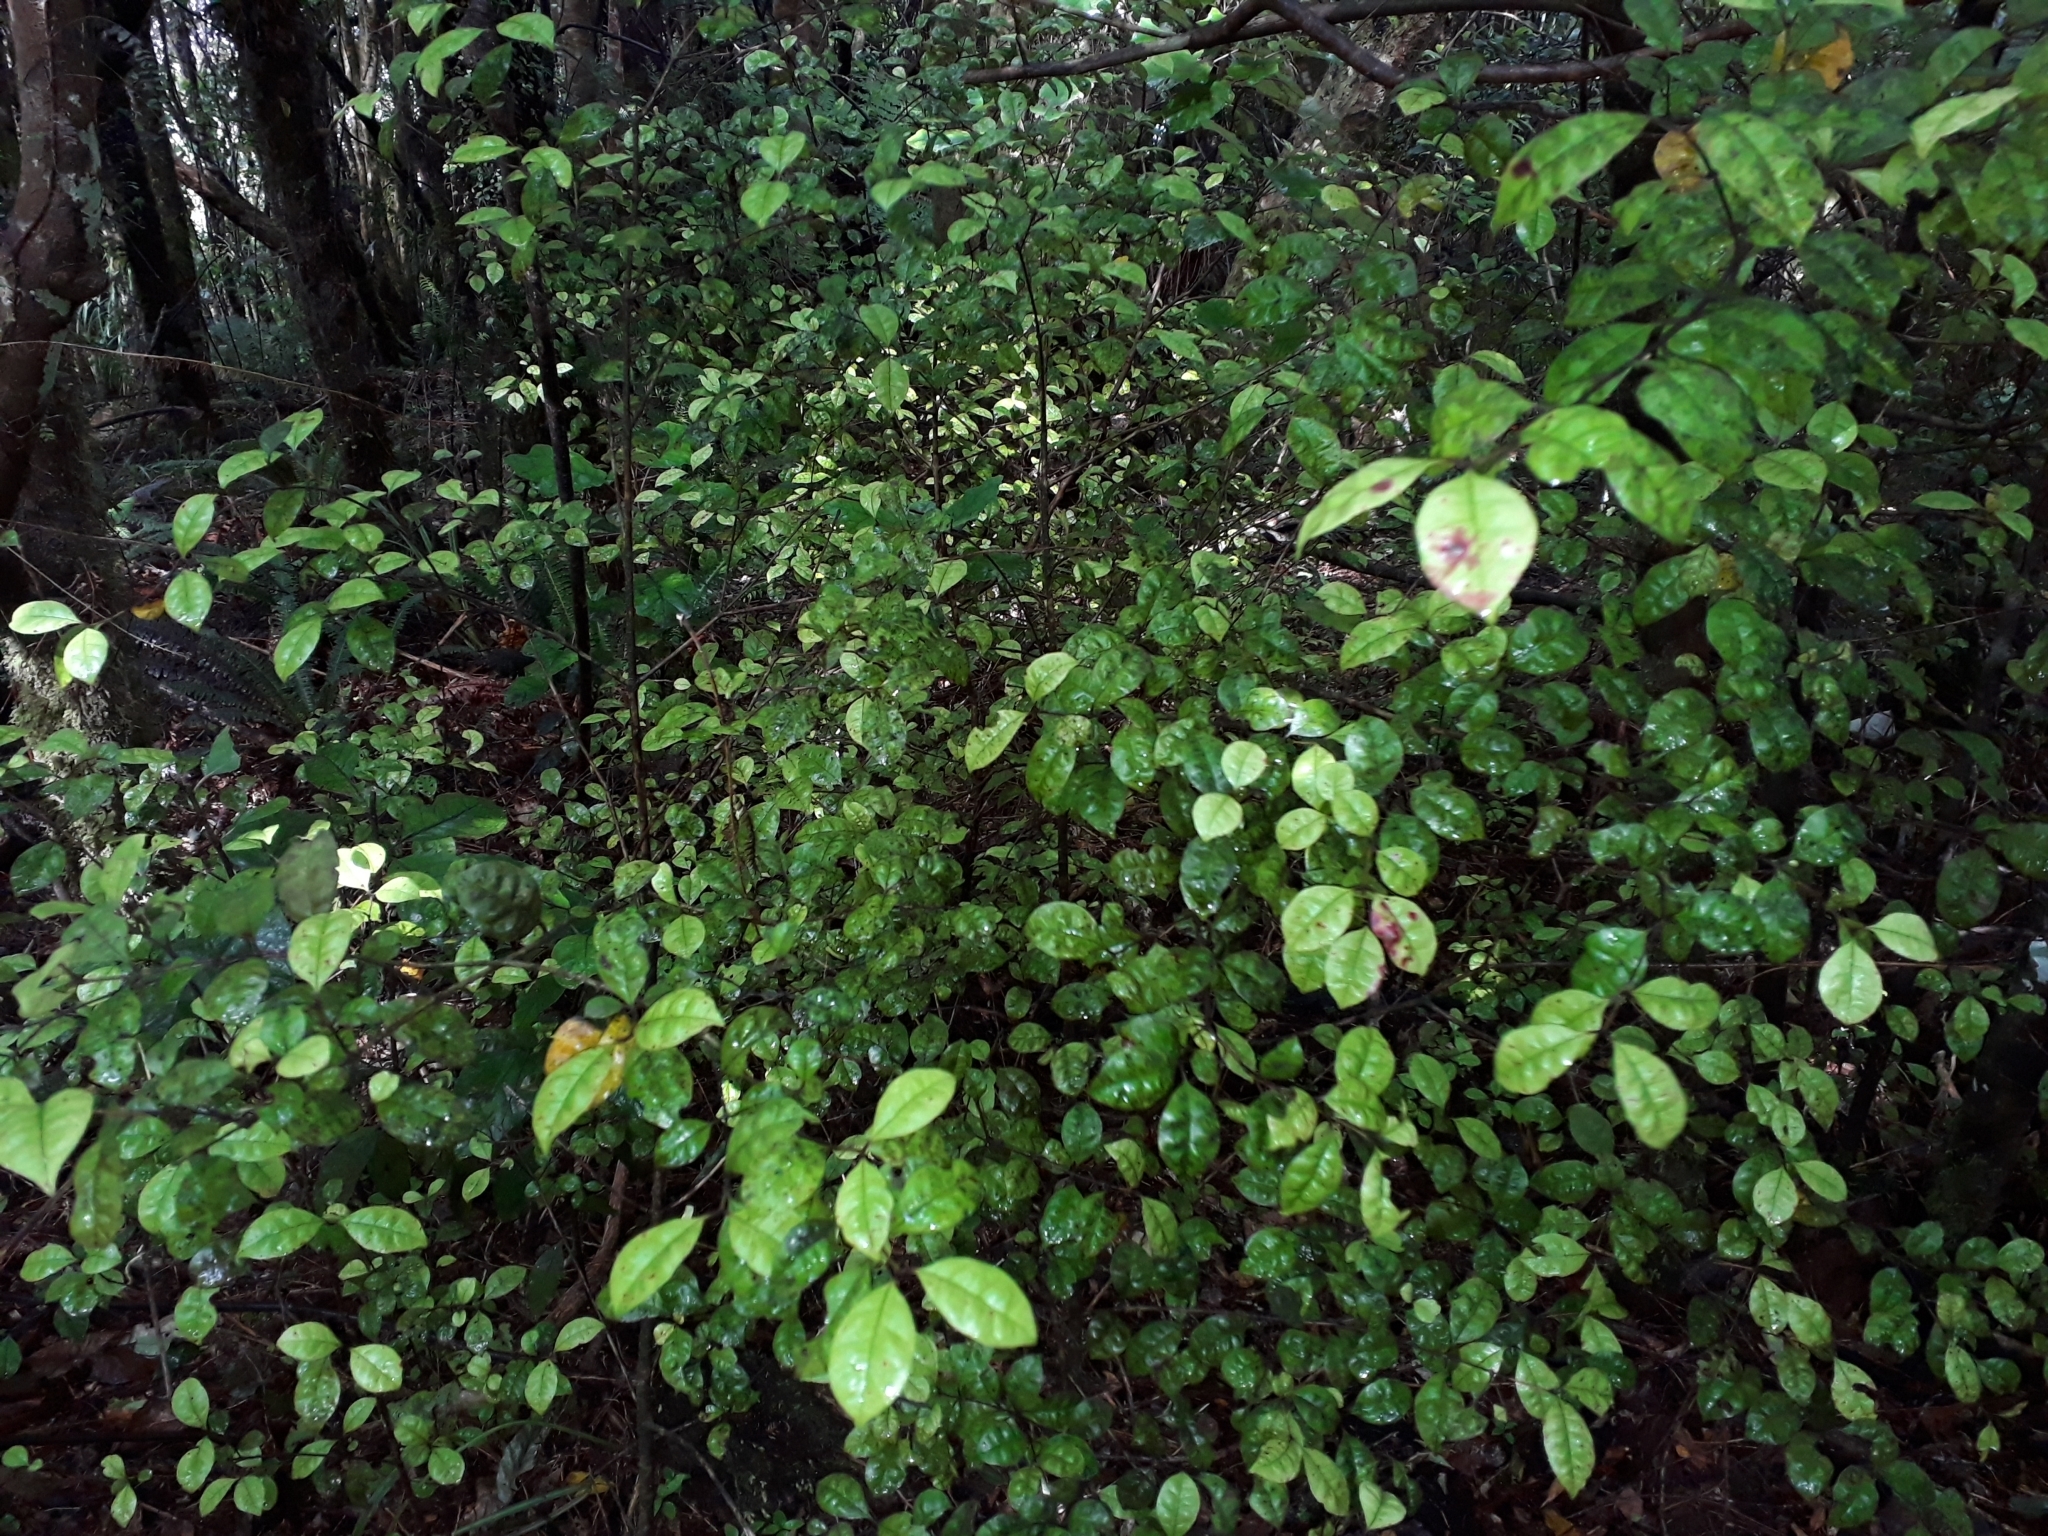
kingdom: Plantae
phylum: Tracheophyta
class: Magnoliopsida
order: Myrtales
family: Myrtaceae
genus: Lophomyrtus
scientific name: Lophomyrtus bullata
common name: Rama rama
